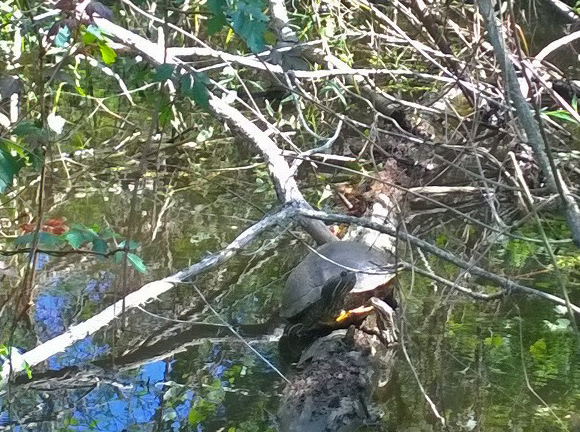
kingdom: Animalia
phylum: Chordata
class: Testudines
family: Emydidae
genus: Trachemys
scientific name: Trachemys scripta
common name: Slider
